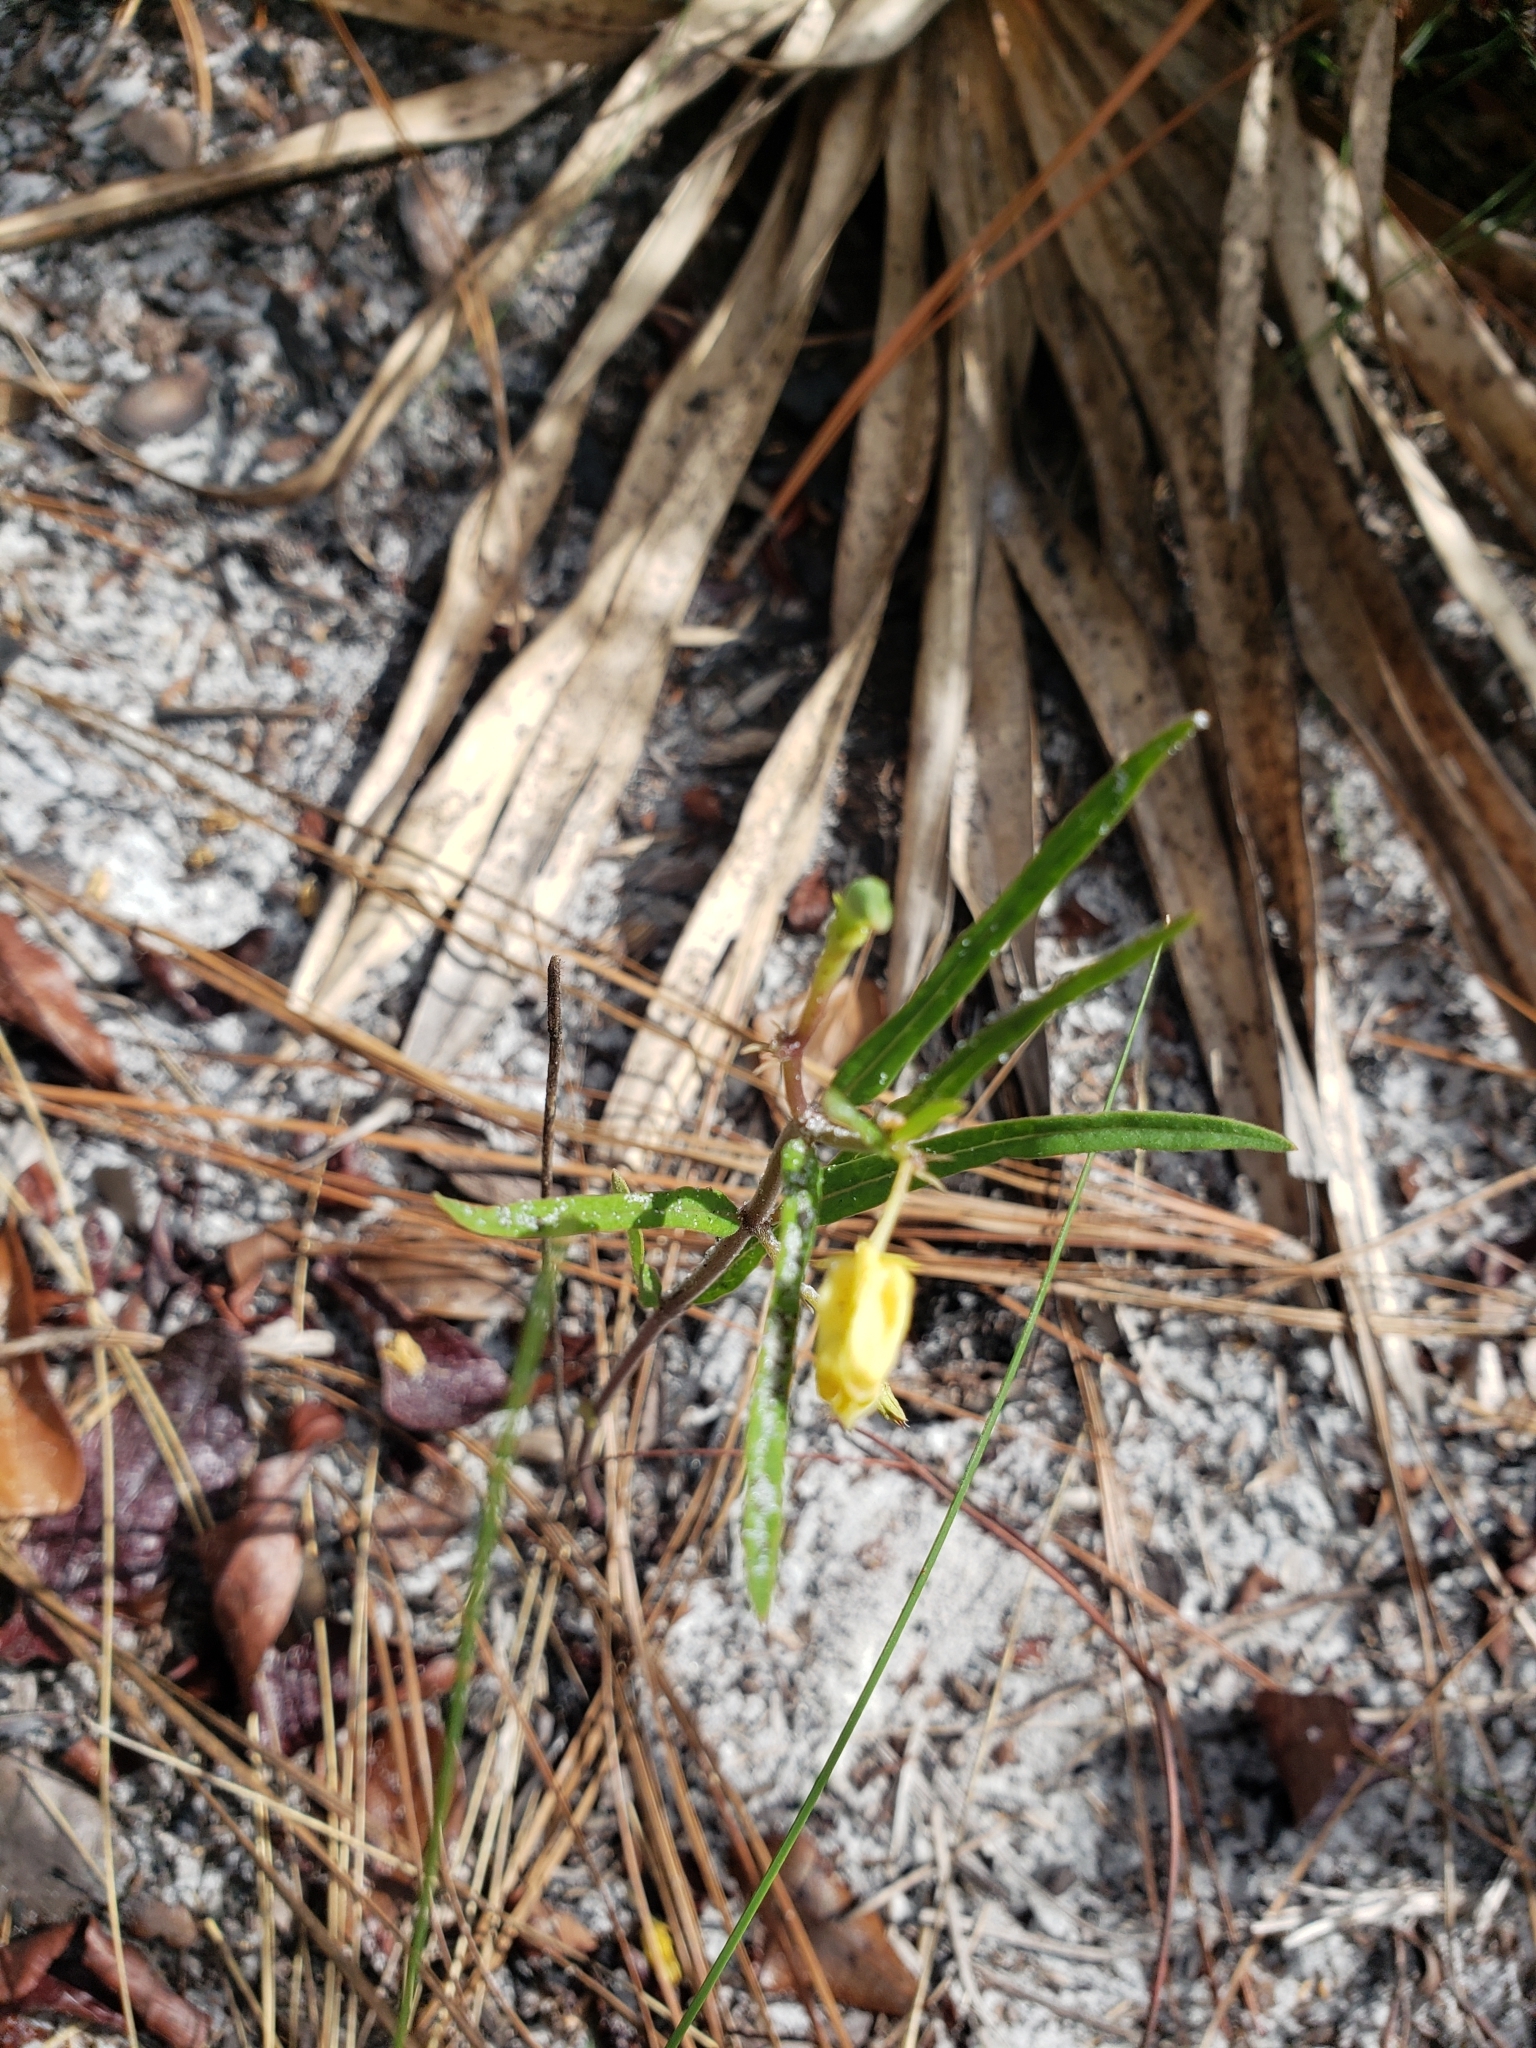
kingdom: Plantae
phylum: Tracheophyta
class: Magnoliopsida
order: Gentianales
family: Apocynaceae
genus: Asclepias
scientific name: Asclepias pedicellata
